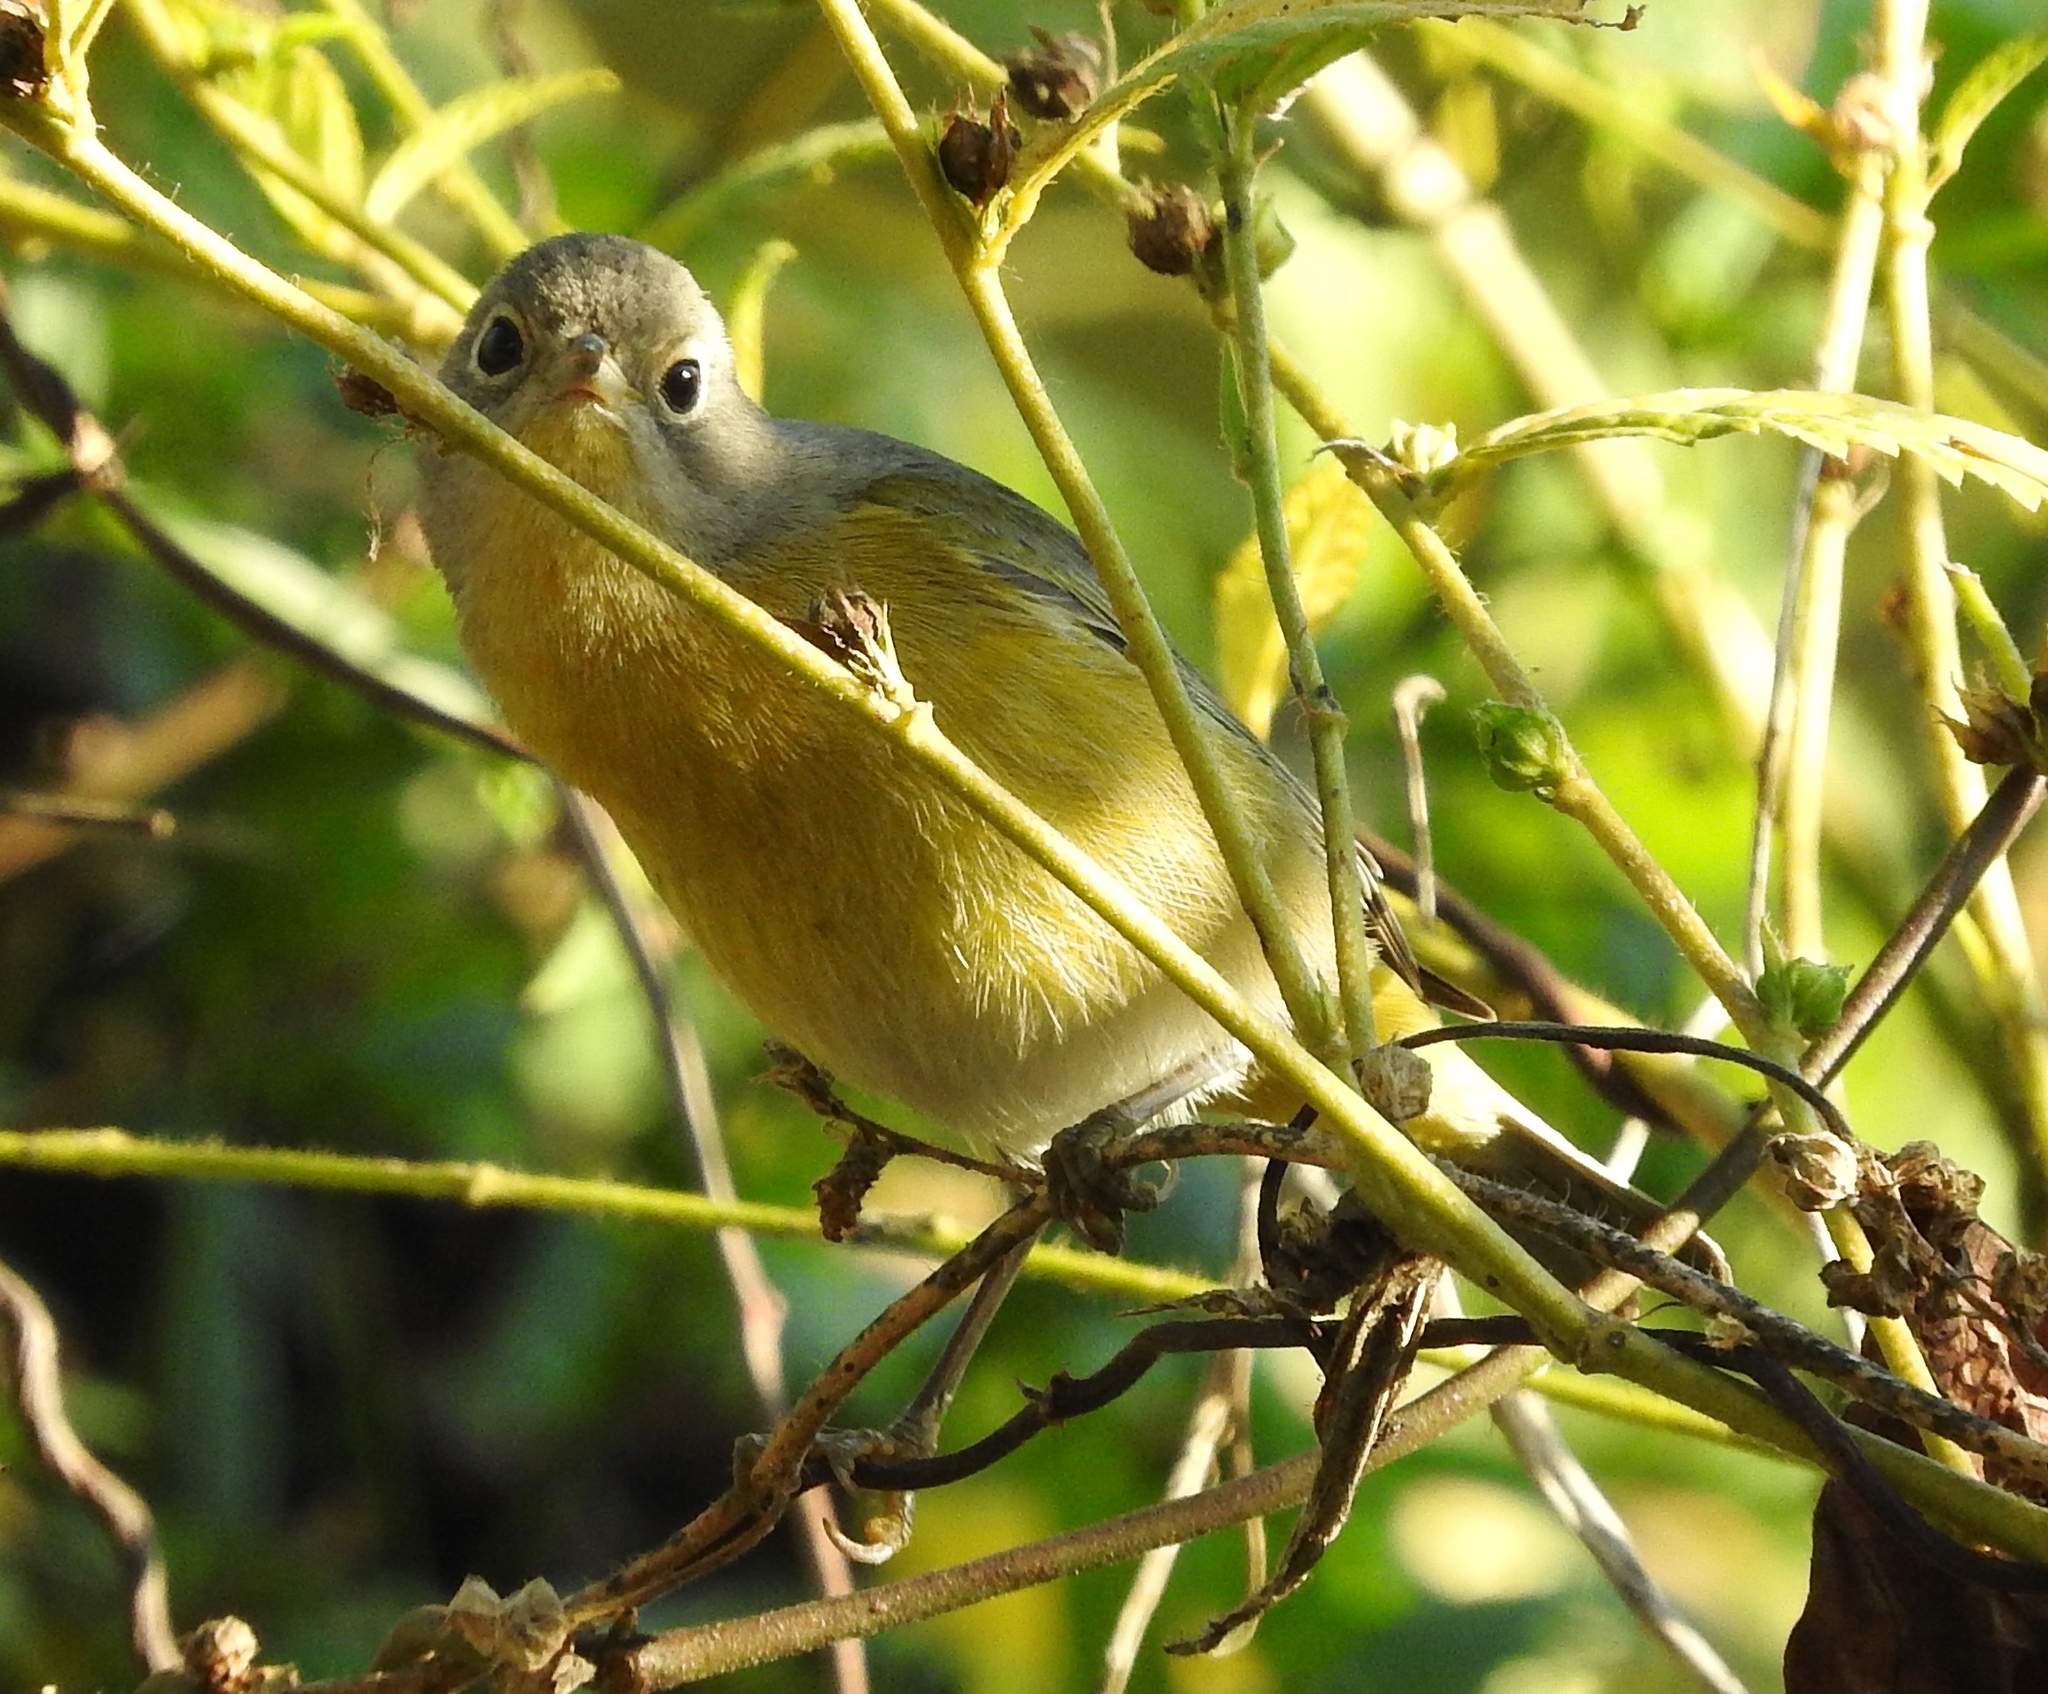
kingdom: Animalia
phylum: Chordata
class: Aves
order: Passeriformes
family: Parulidae
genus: Leiothlypis
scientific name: Leiothlypis ruficapilla
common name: Nashville warbler
